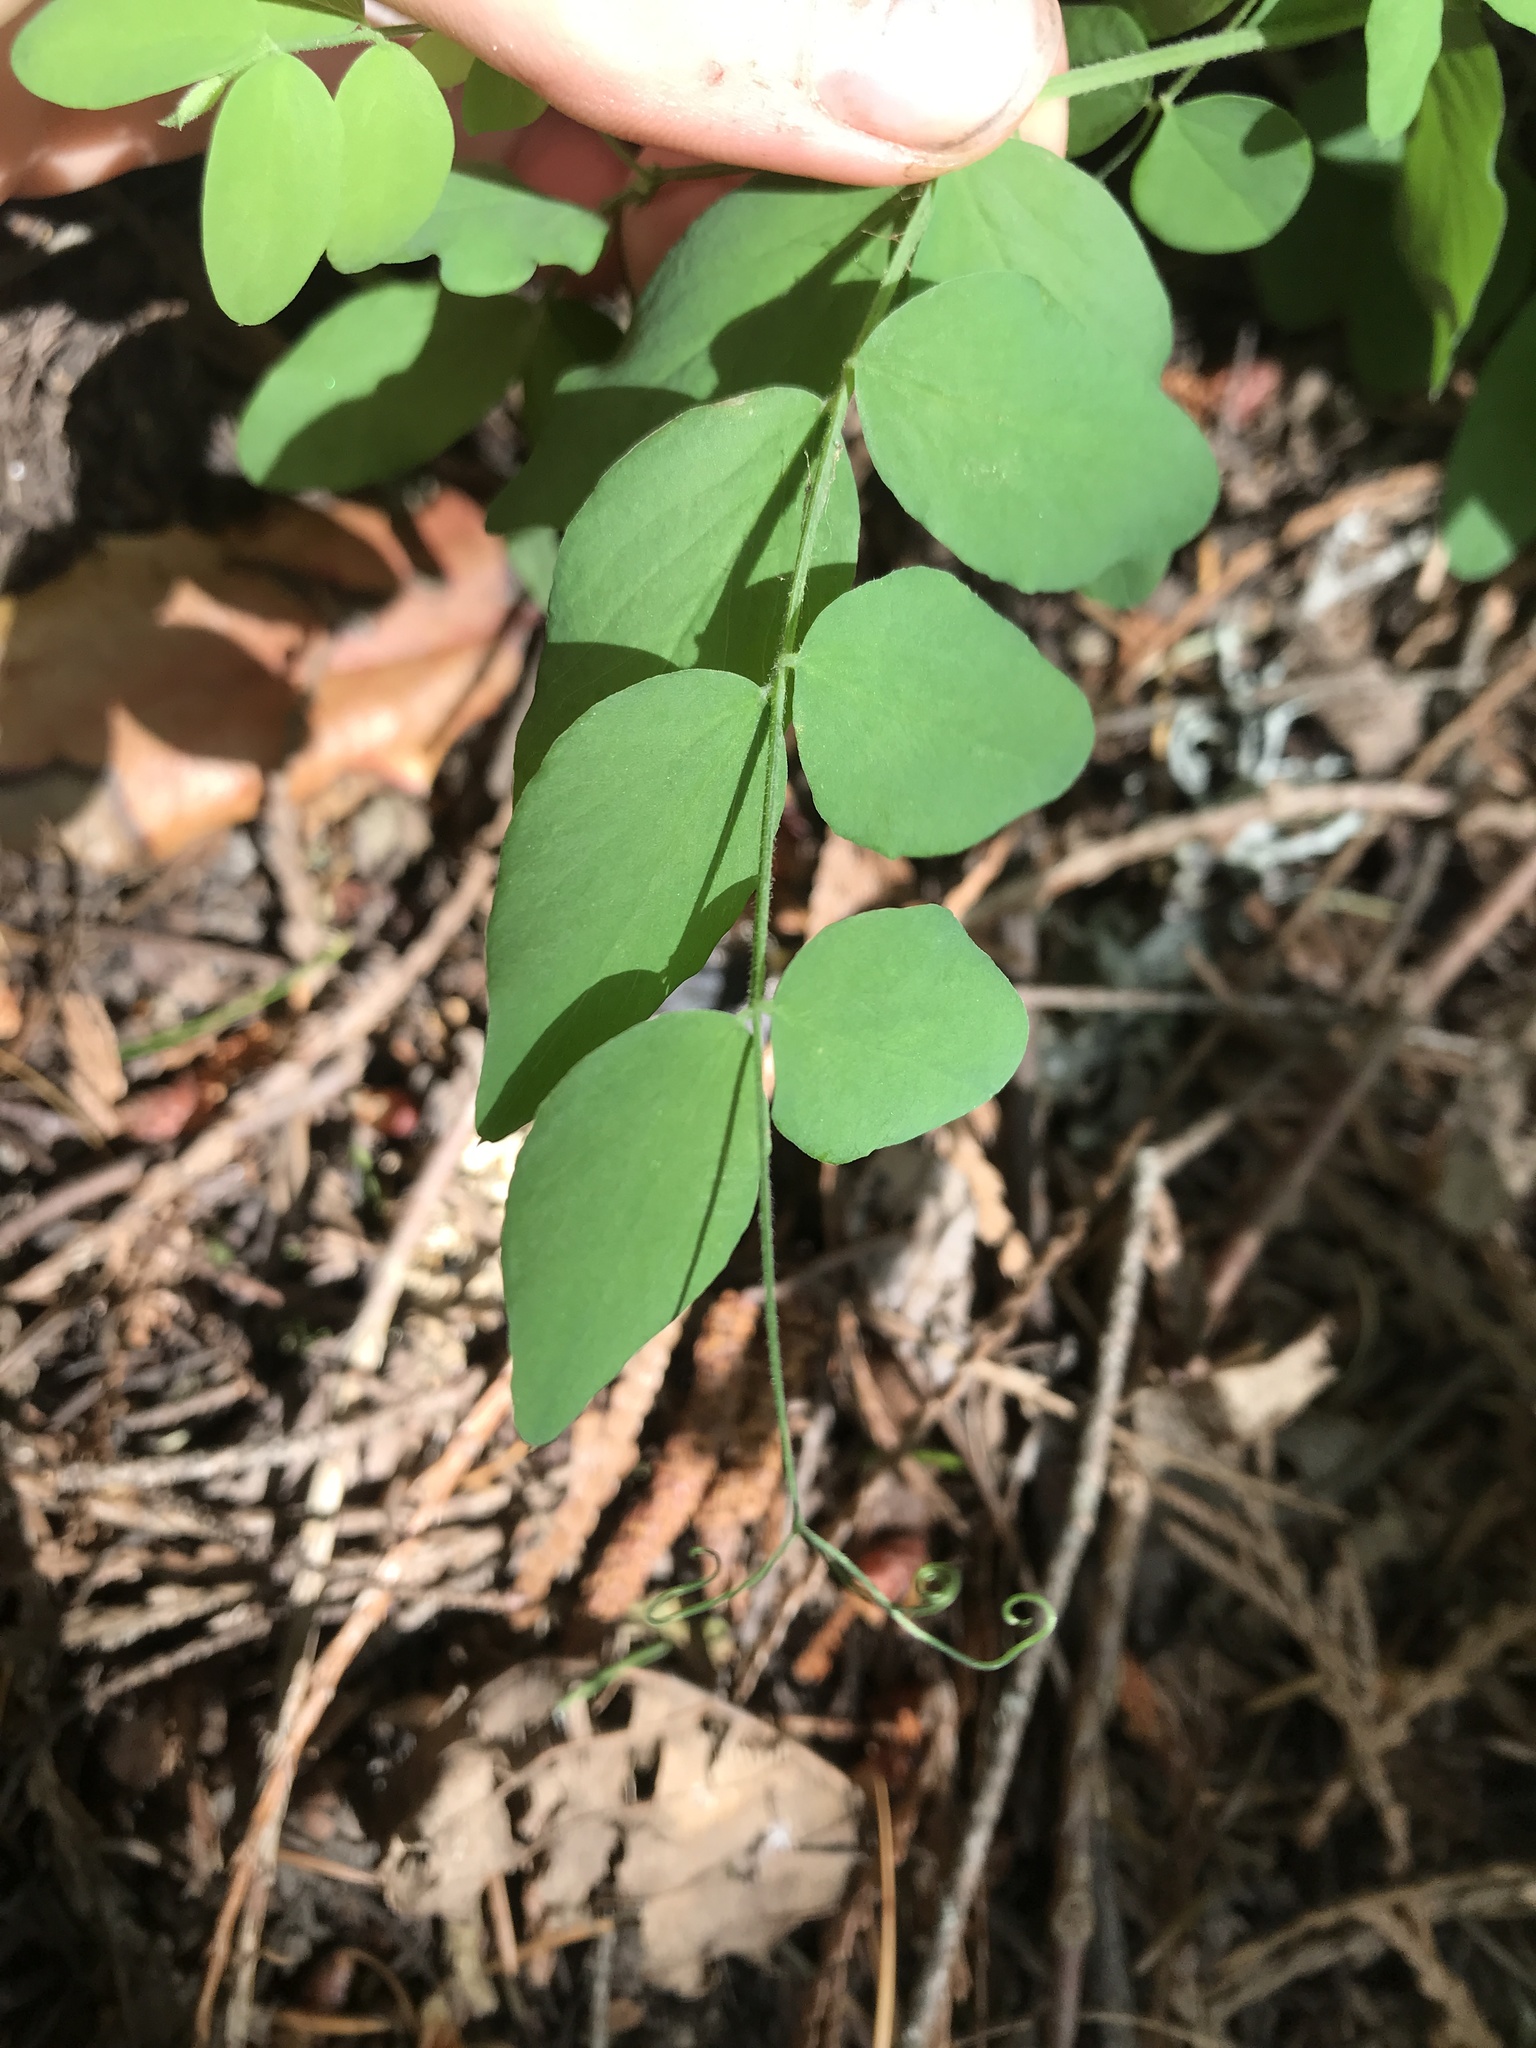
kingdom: Plantae
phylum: Tracheophyta
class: Magnoliopsida
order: Fabales
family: Fabaceae
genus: Lathyrus
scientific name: Lathyrus nevadensis
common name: Sierra nevada peavine
